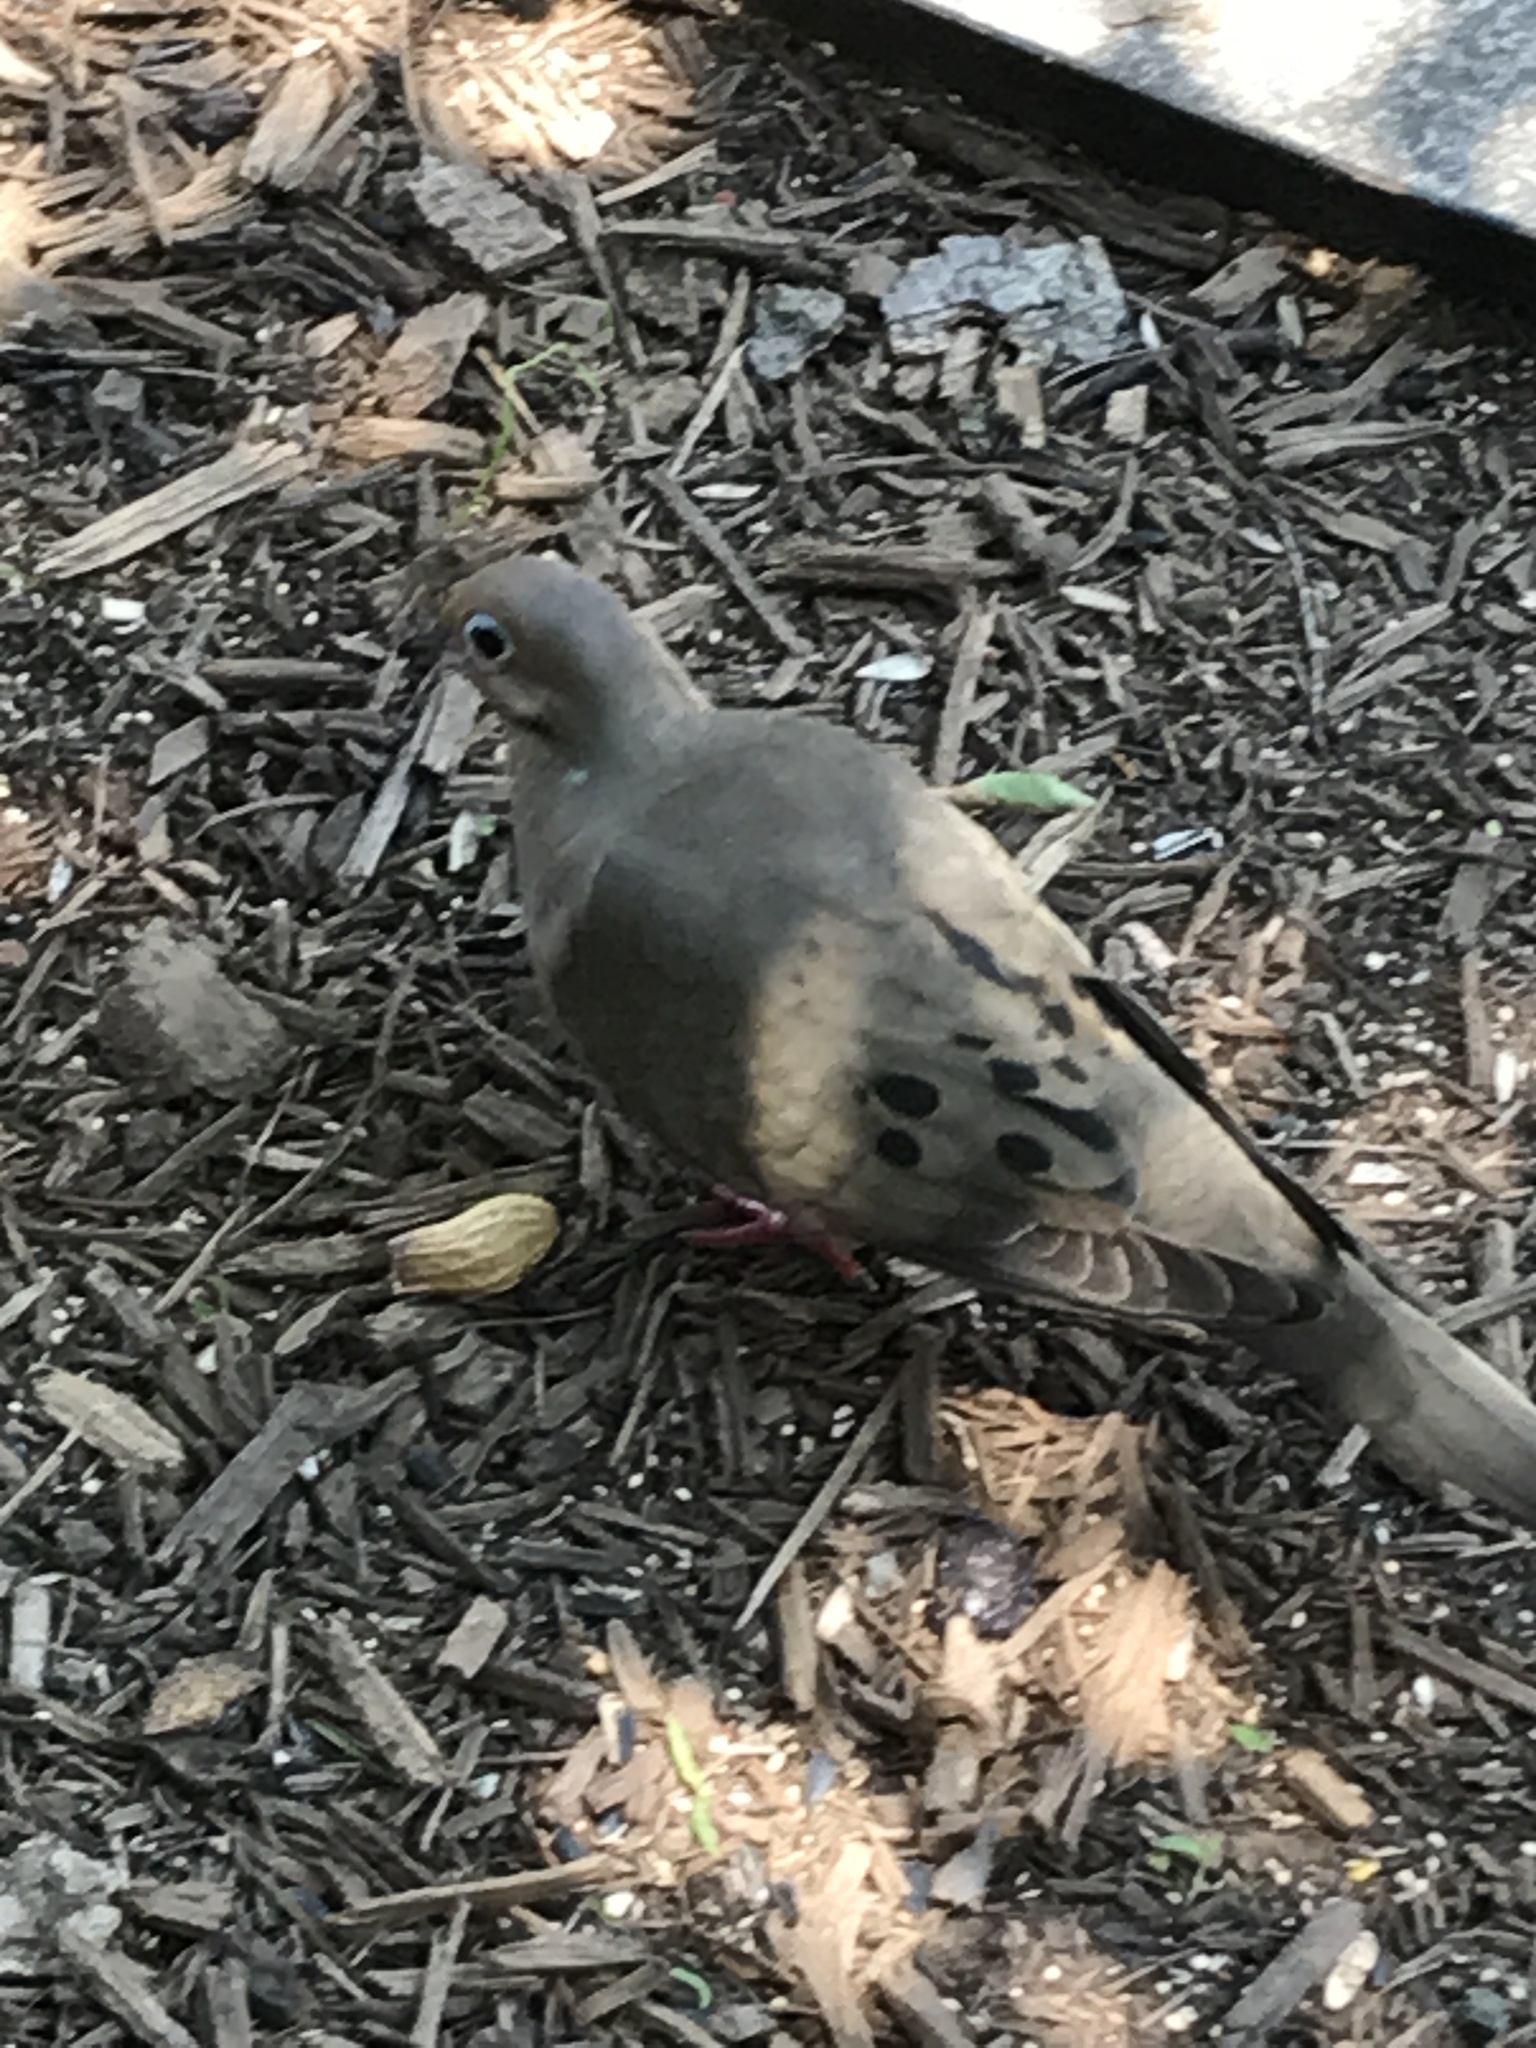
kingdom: Animalia
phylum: Chordata
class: Aves
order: Columbiformes
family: Columbidae
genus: Zenaida
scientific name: Zenaida macroura
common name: Mourning dove
